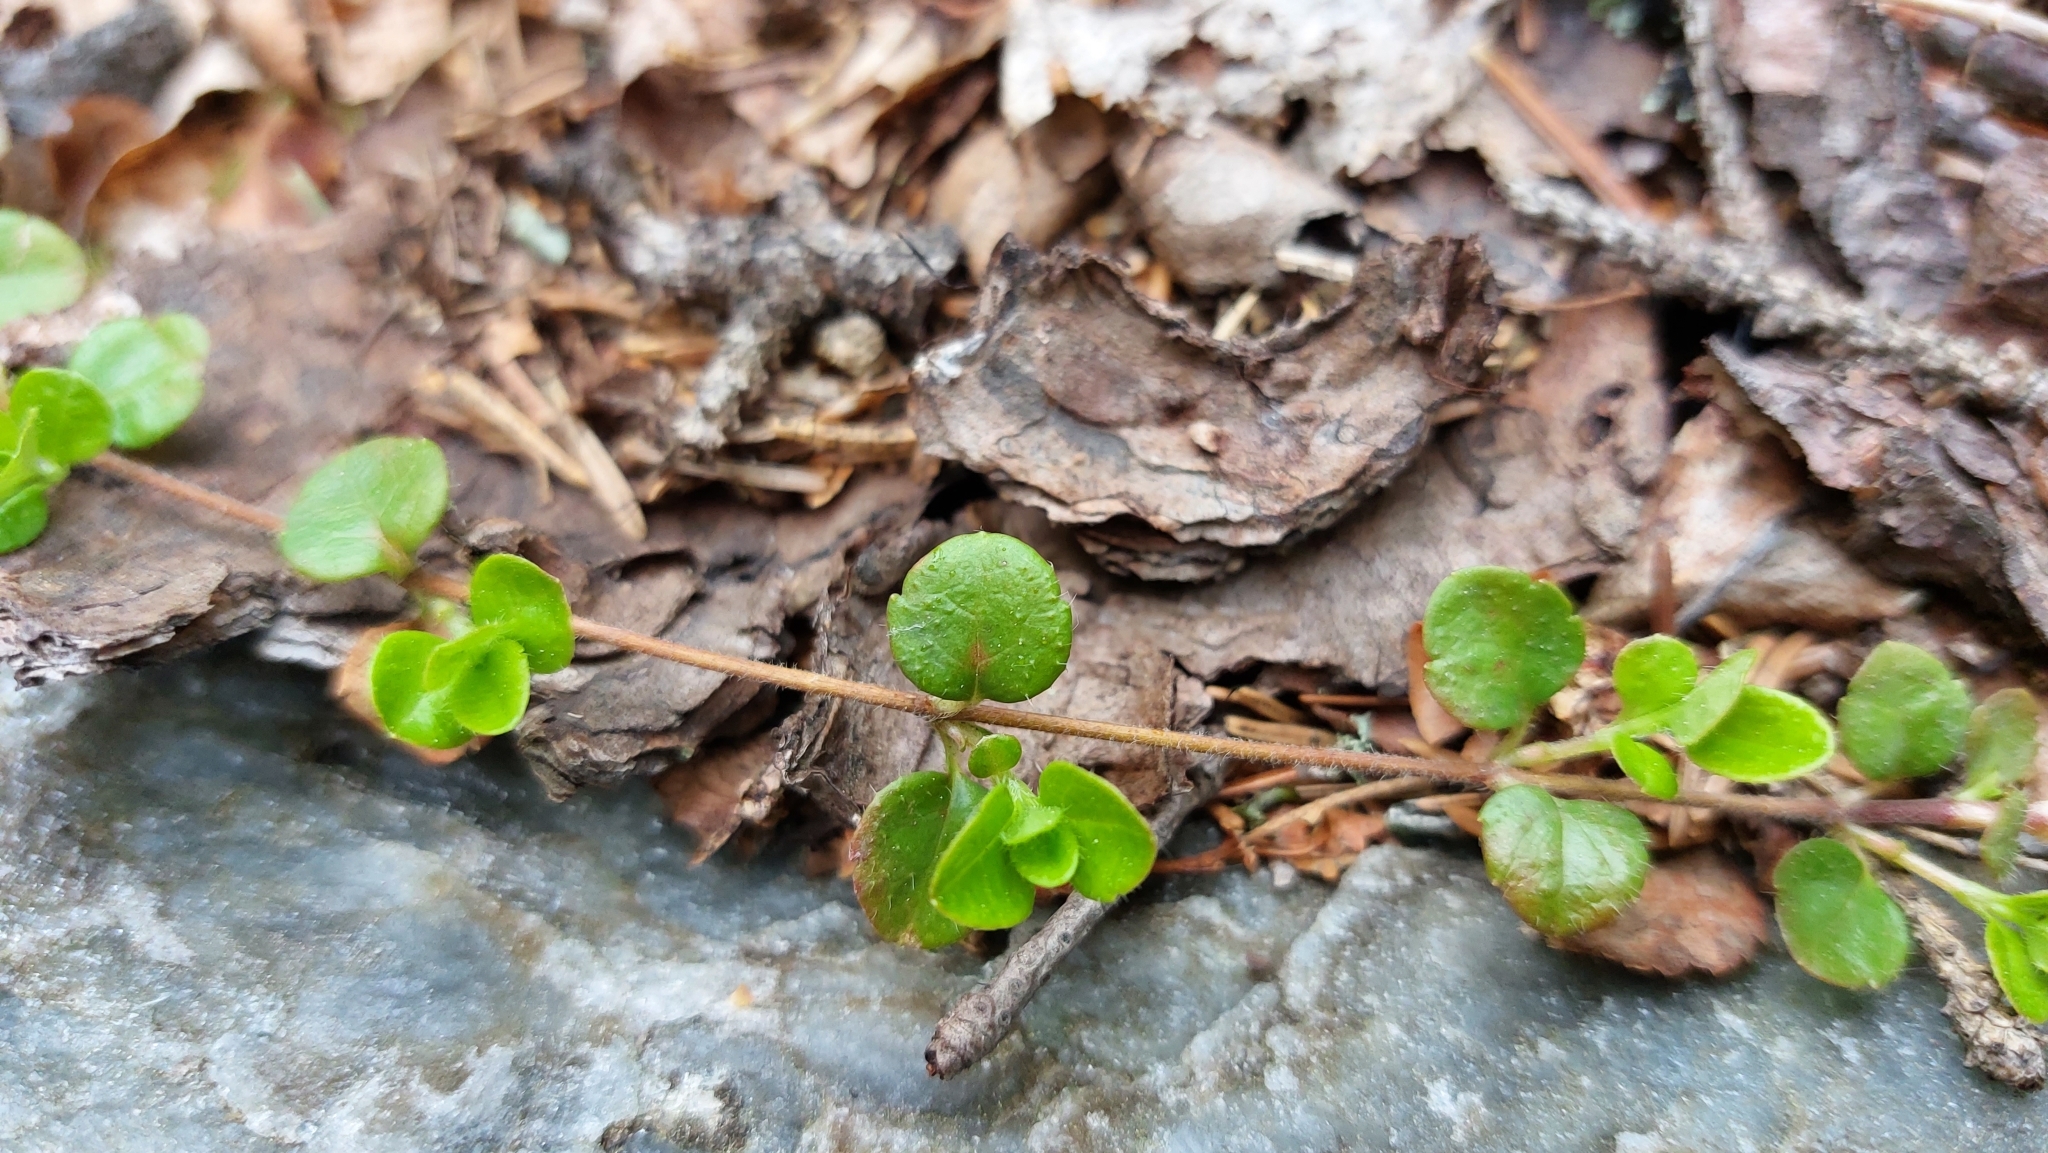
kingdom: Plantae
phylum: Tracheophyta
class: Magnoliopsida
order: Dipsacales
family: Caprifoliaceae
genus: Linnaea
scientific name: Linnaea borealis
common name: Twinflower
